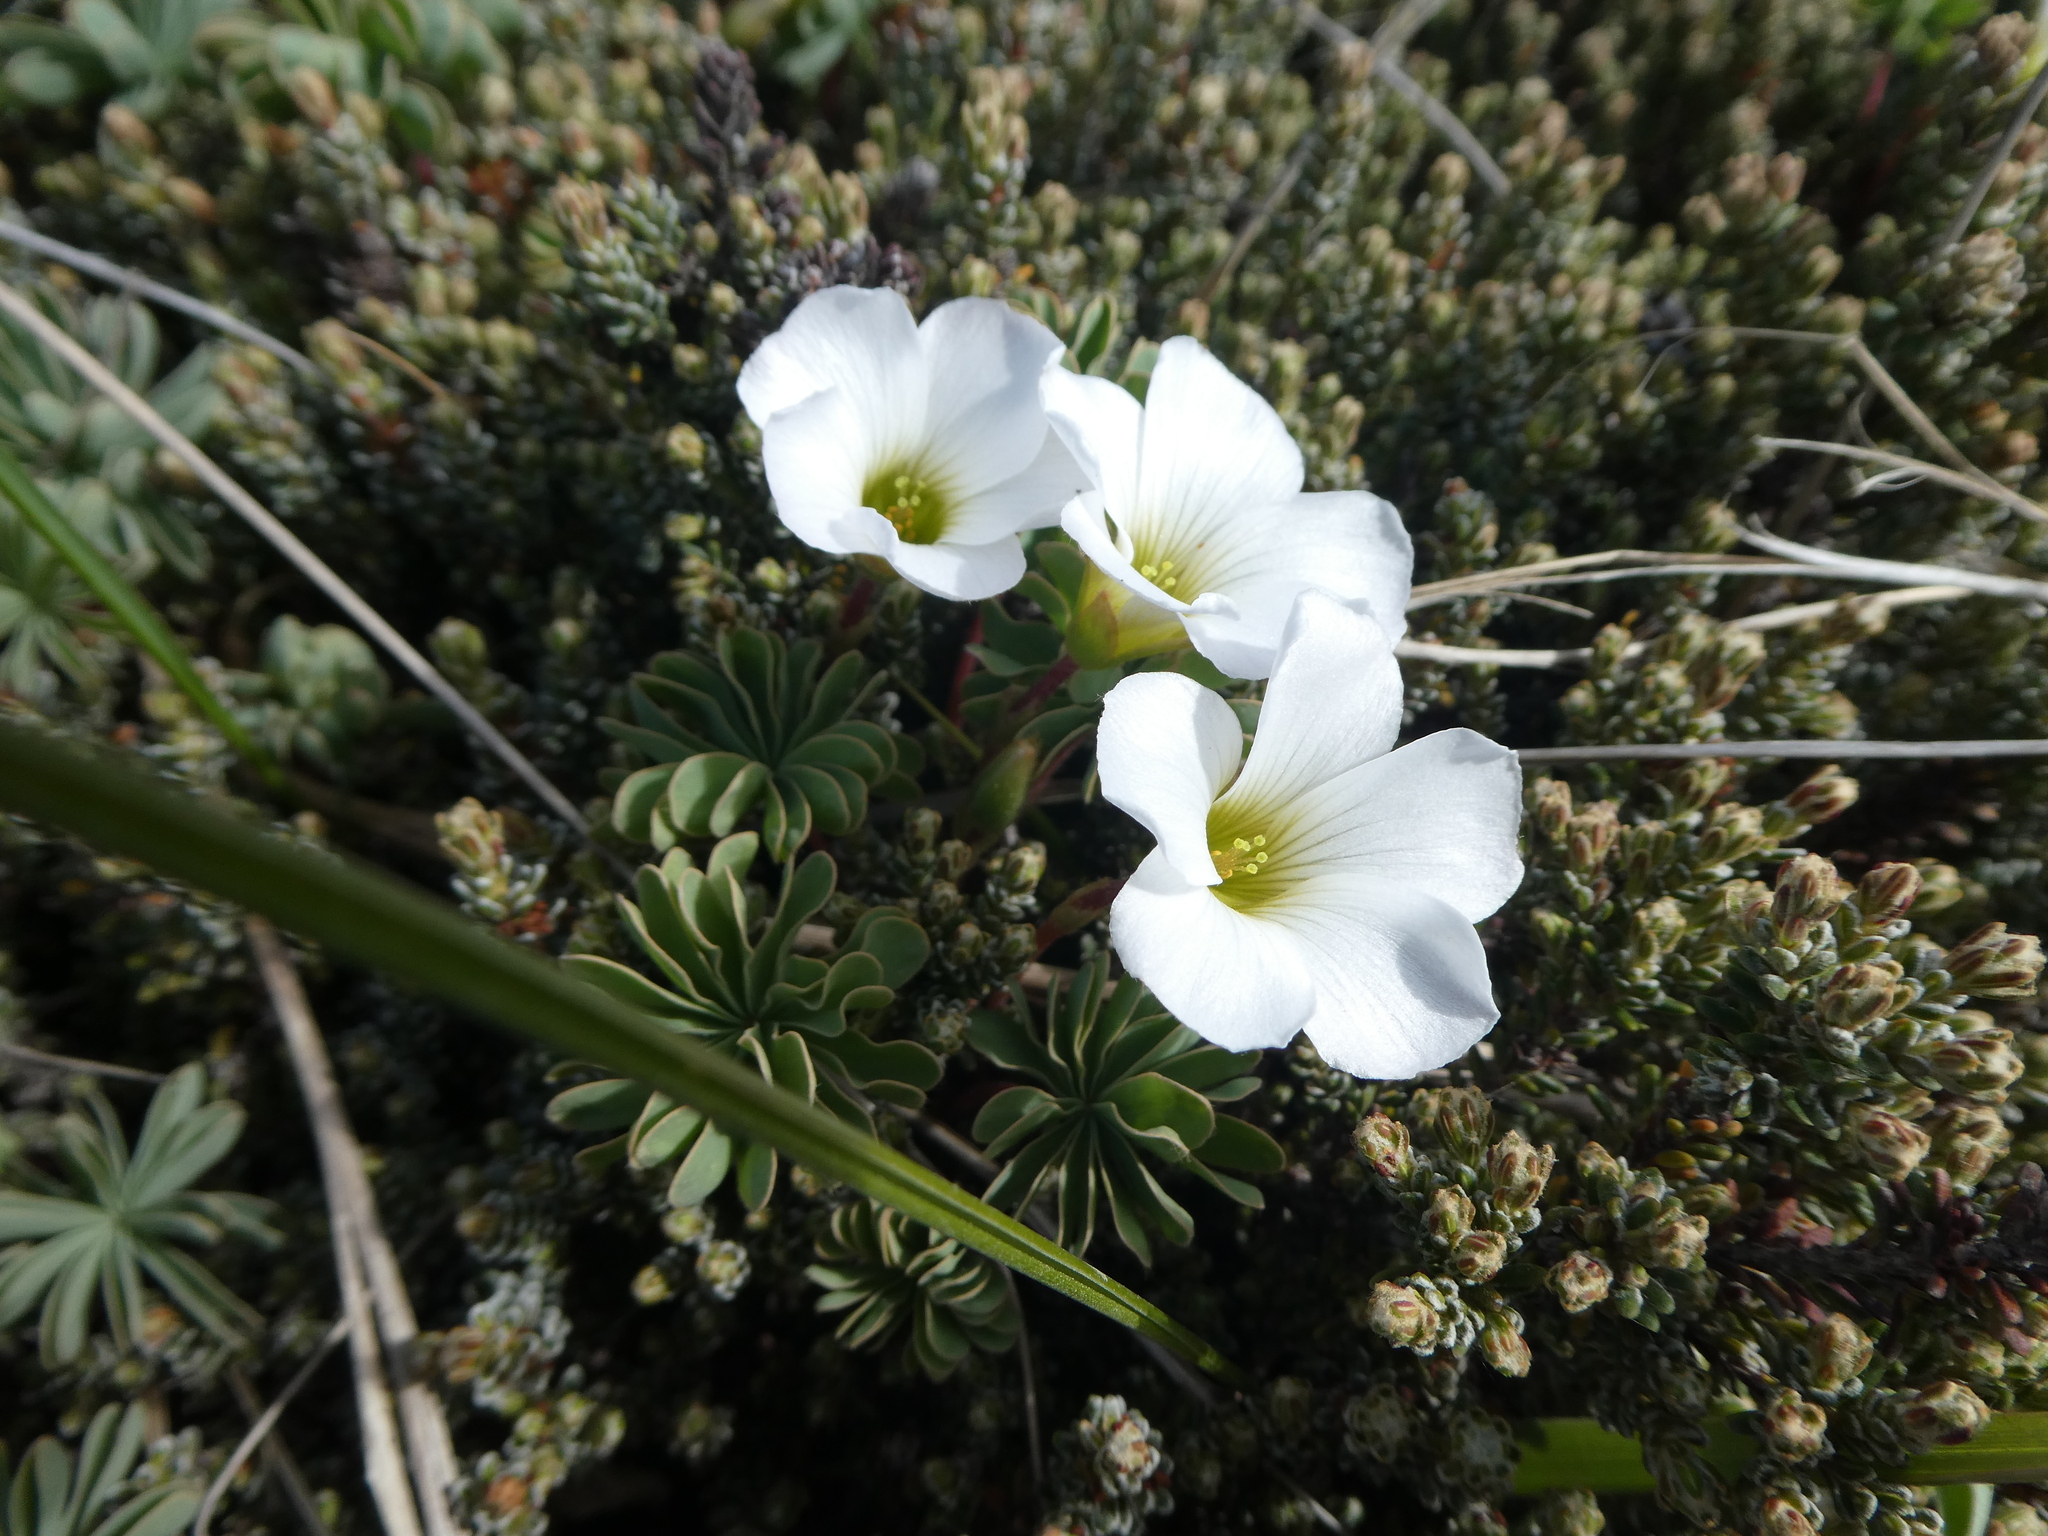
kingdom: Plantae
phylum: Tracheophyta
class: Magnoliopsida
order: Oxalidales
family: Oxalidaceae
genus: Oxalis
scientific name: Oxalis enneaphylla
